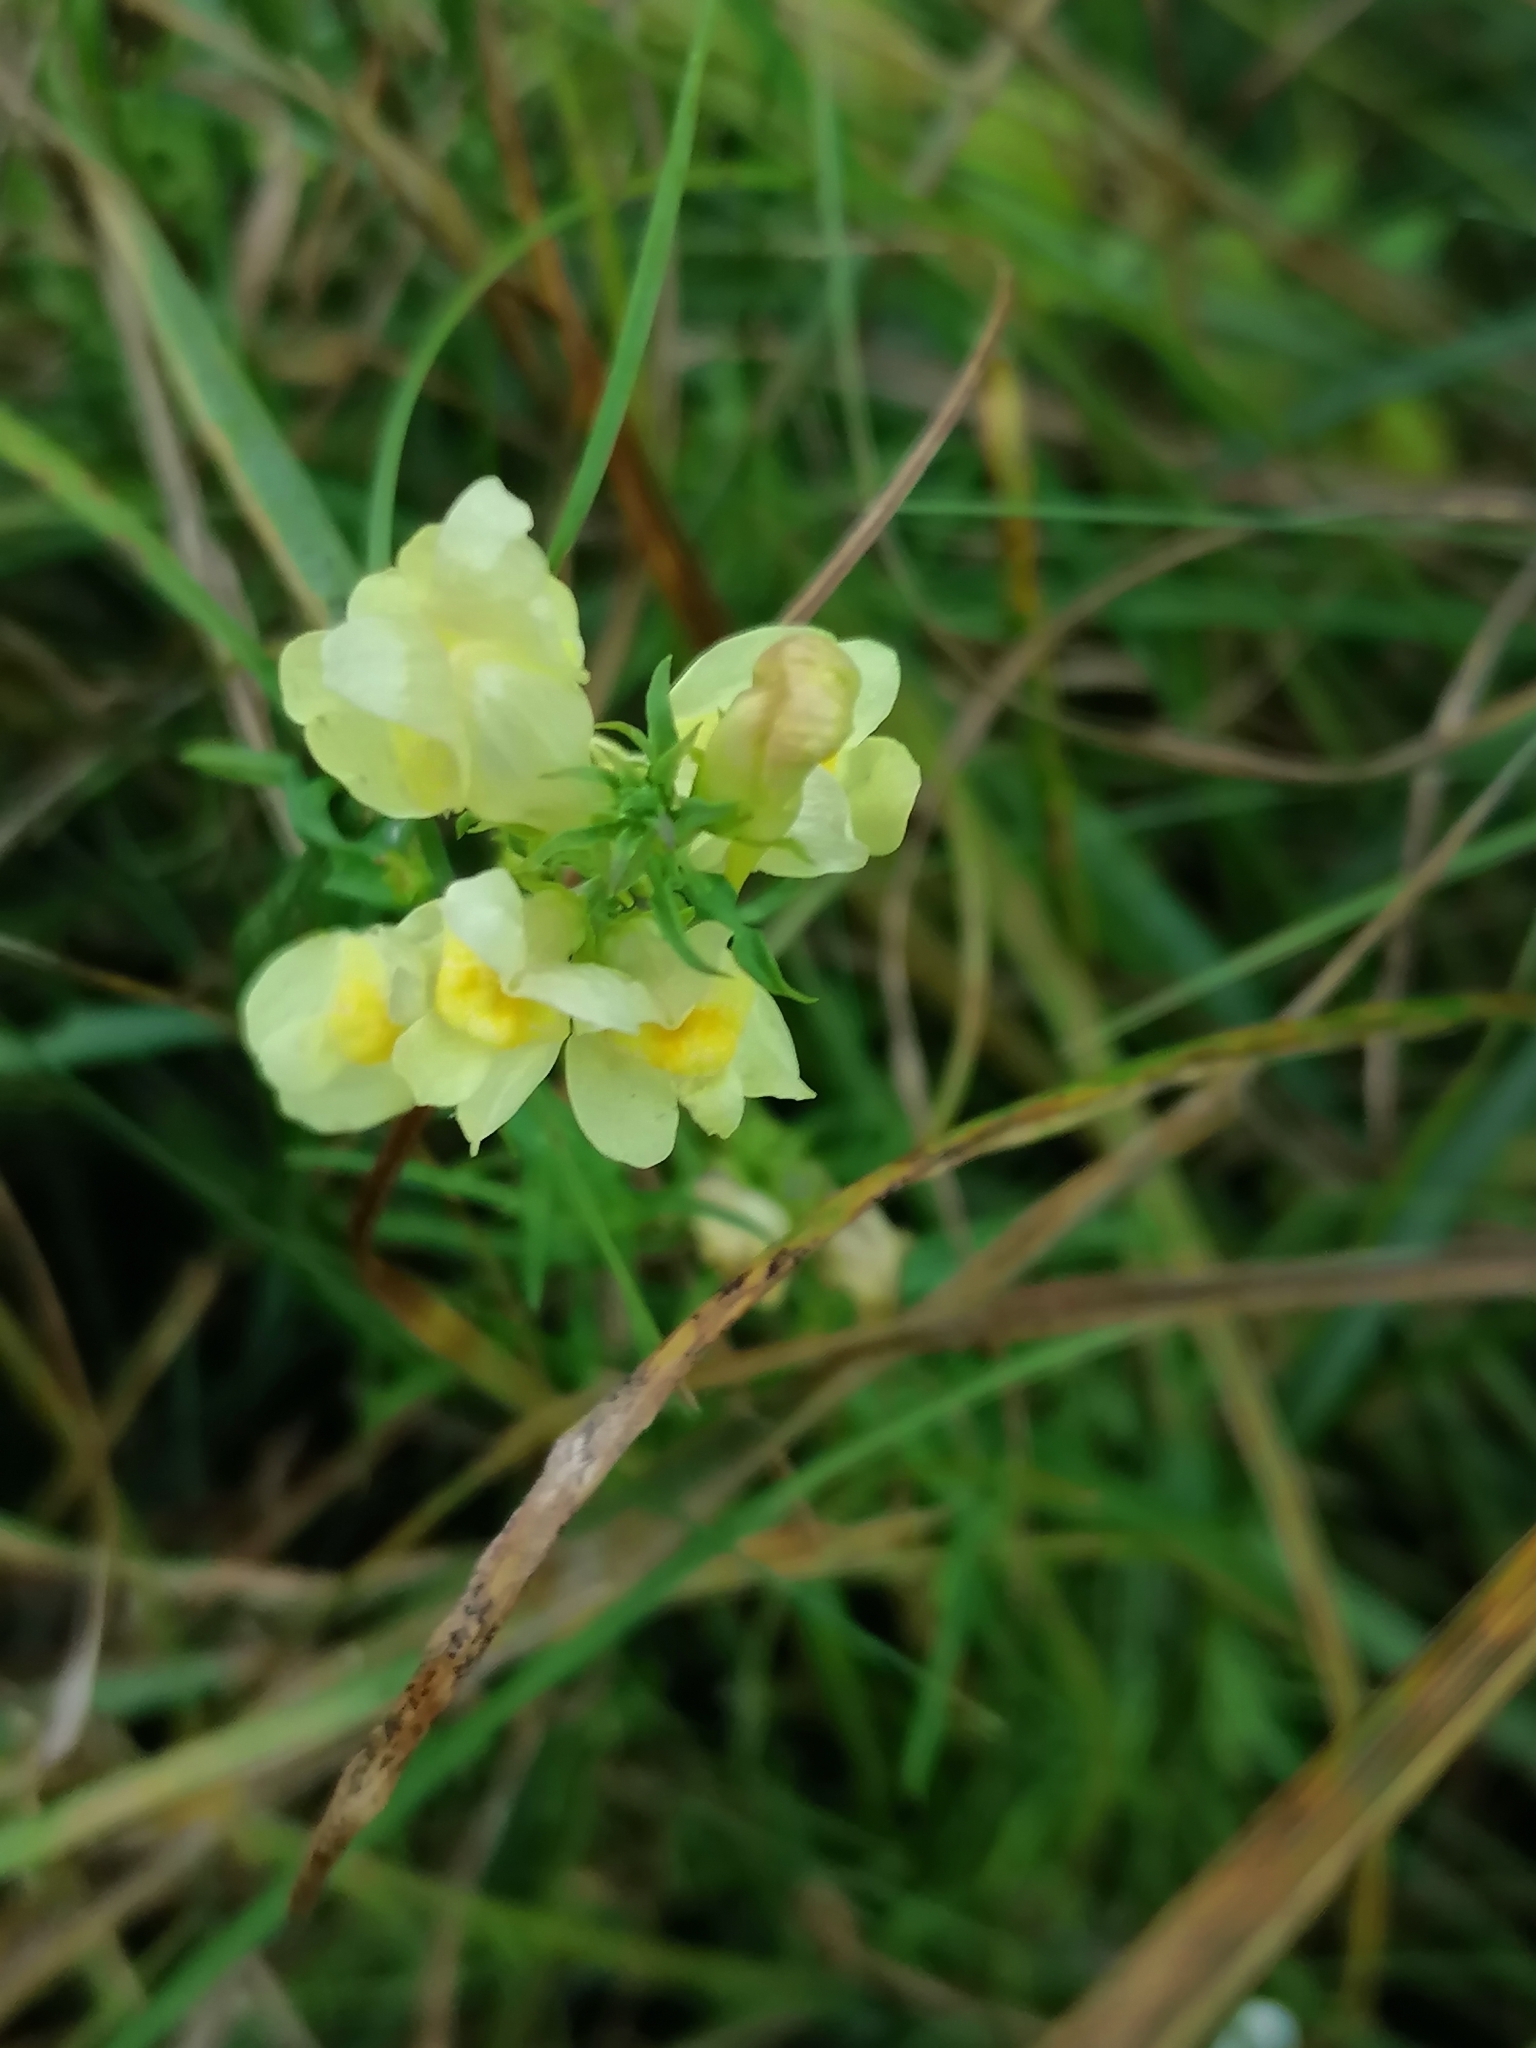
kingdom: Plantae
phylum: Tracheophyta
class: Magnoliopsida
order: Lamiales
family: Plantaginaceae
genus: Linaria
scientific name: Linaria vulgaris
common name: Butter and eggs
